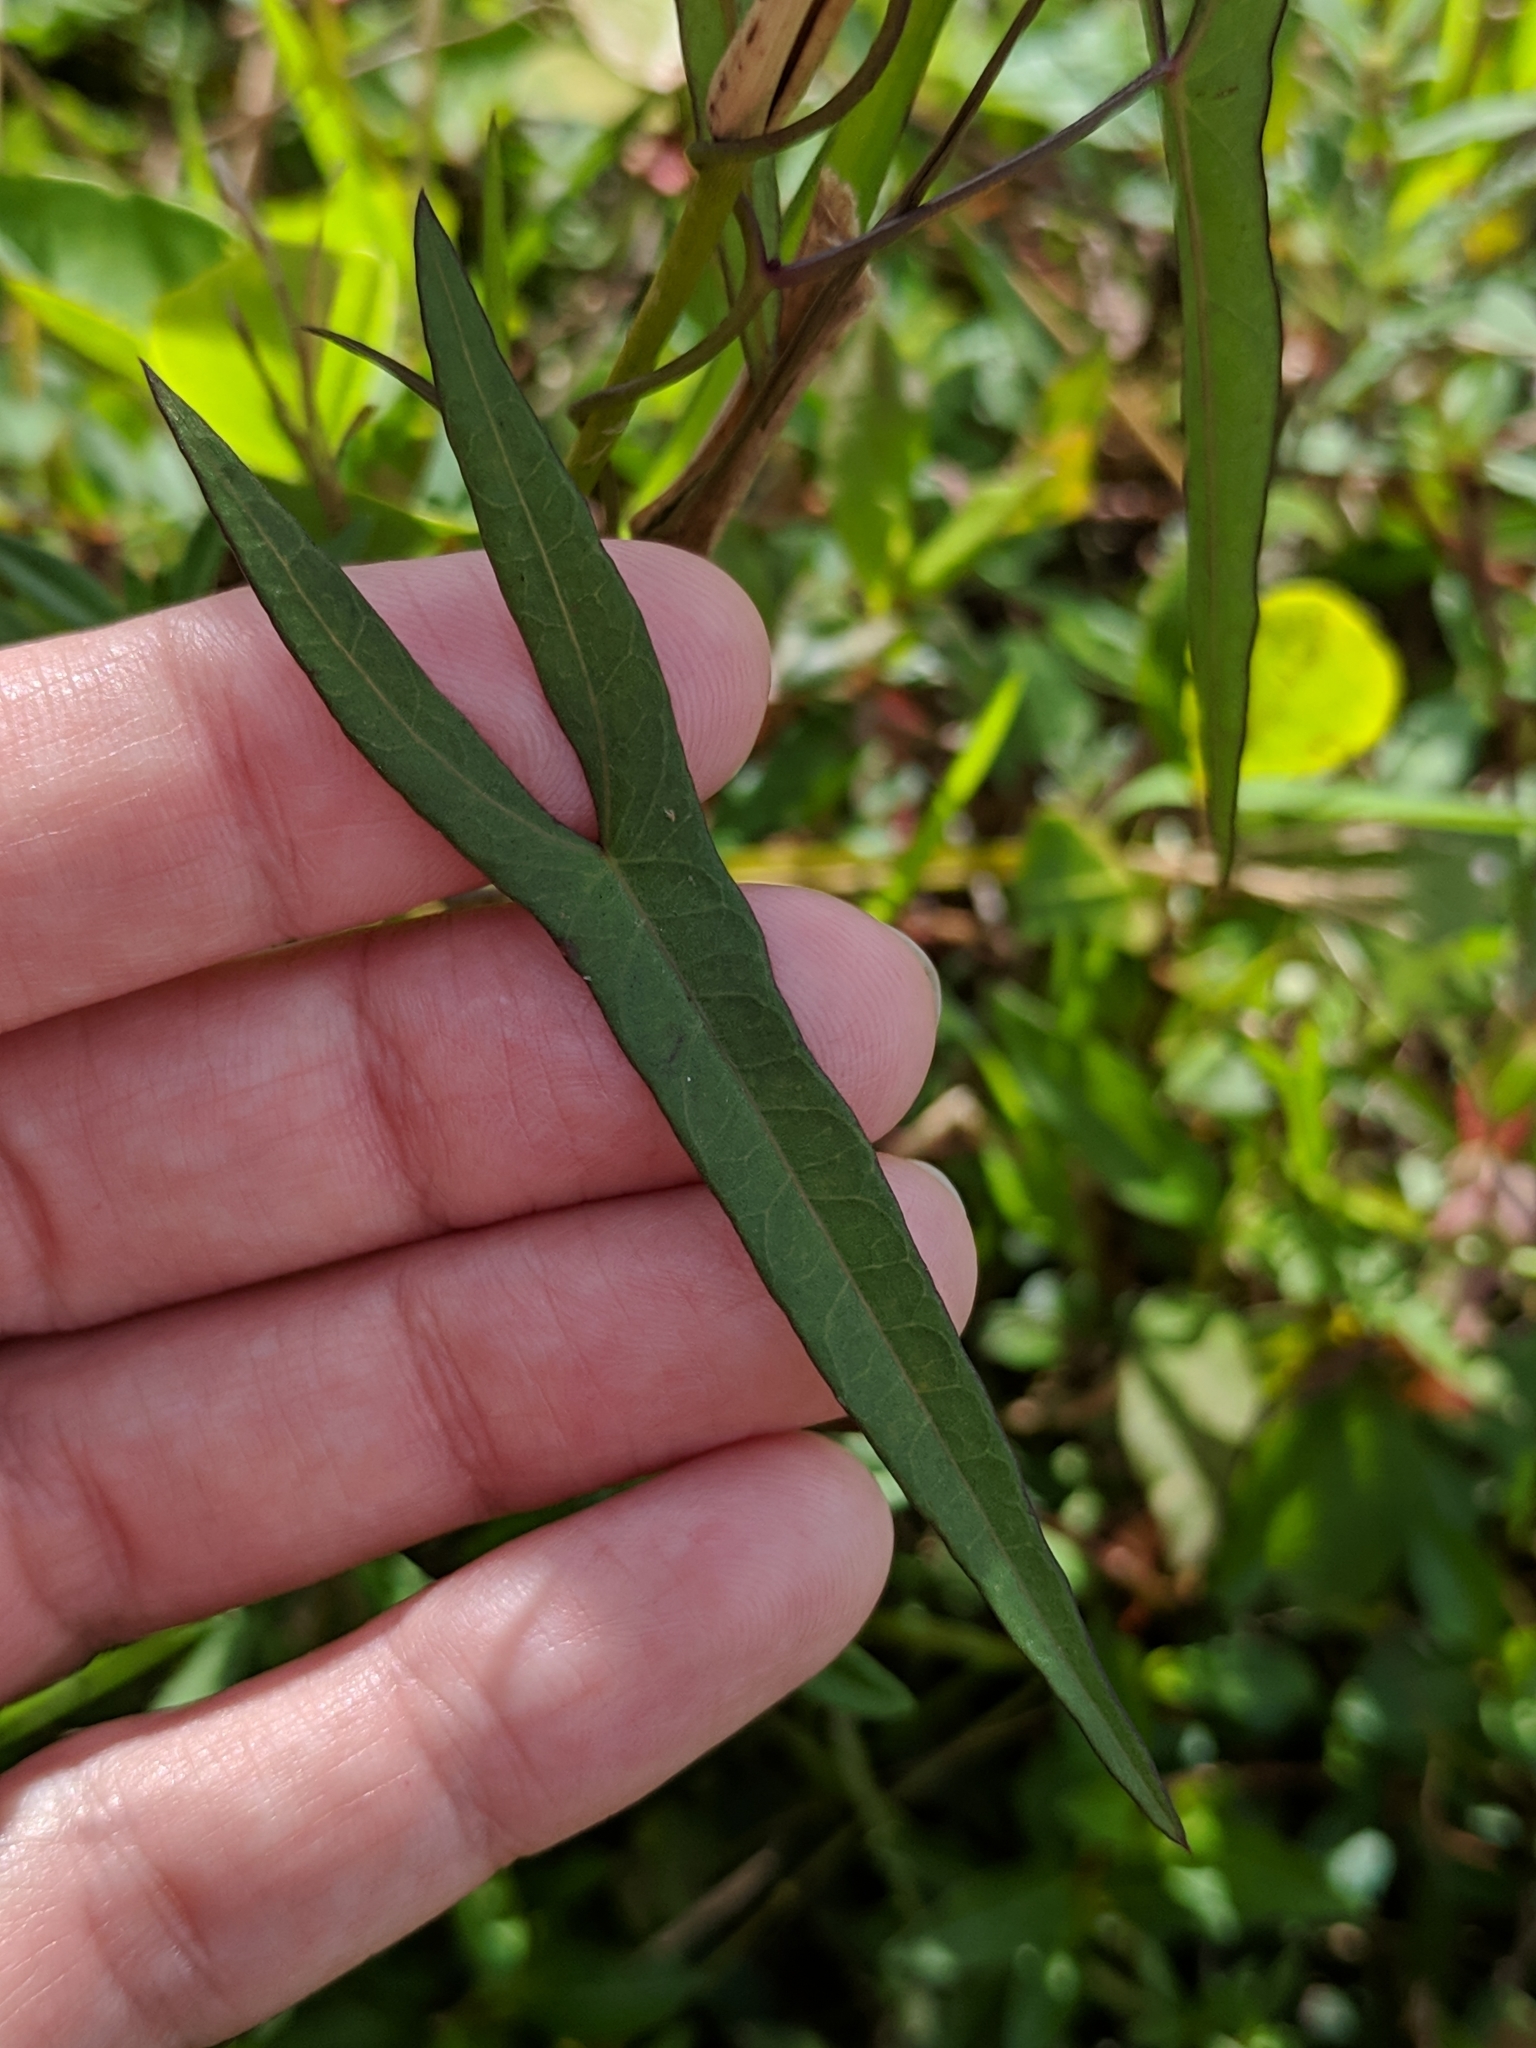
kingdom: Plantae
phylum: Tracheophyta
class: Magnoliopsida
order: Solanales
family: Convolvulaceae
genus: Ipomoea
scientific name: Ipomoea sagittata
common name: Saltmarsh morning glory
